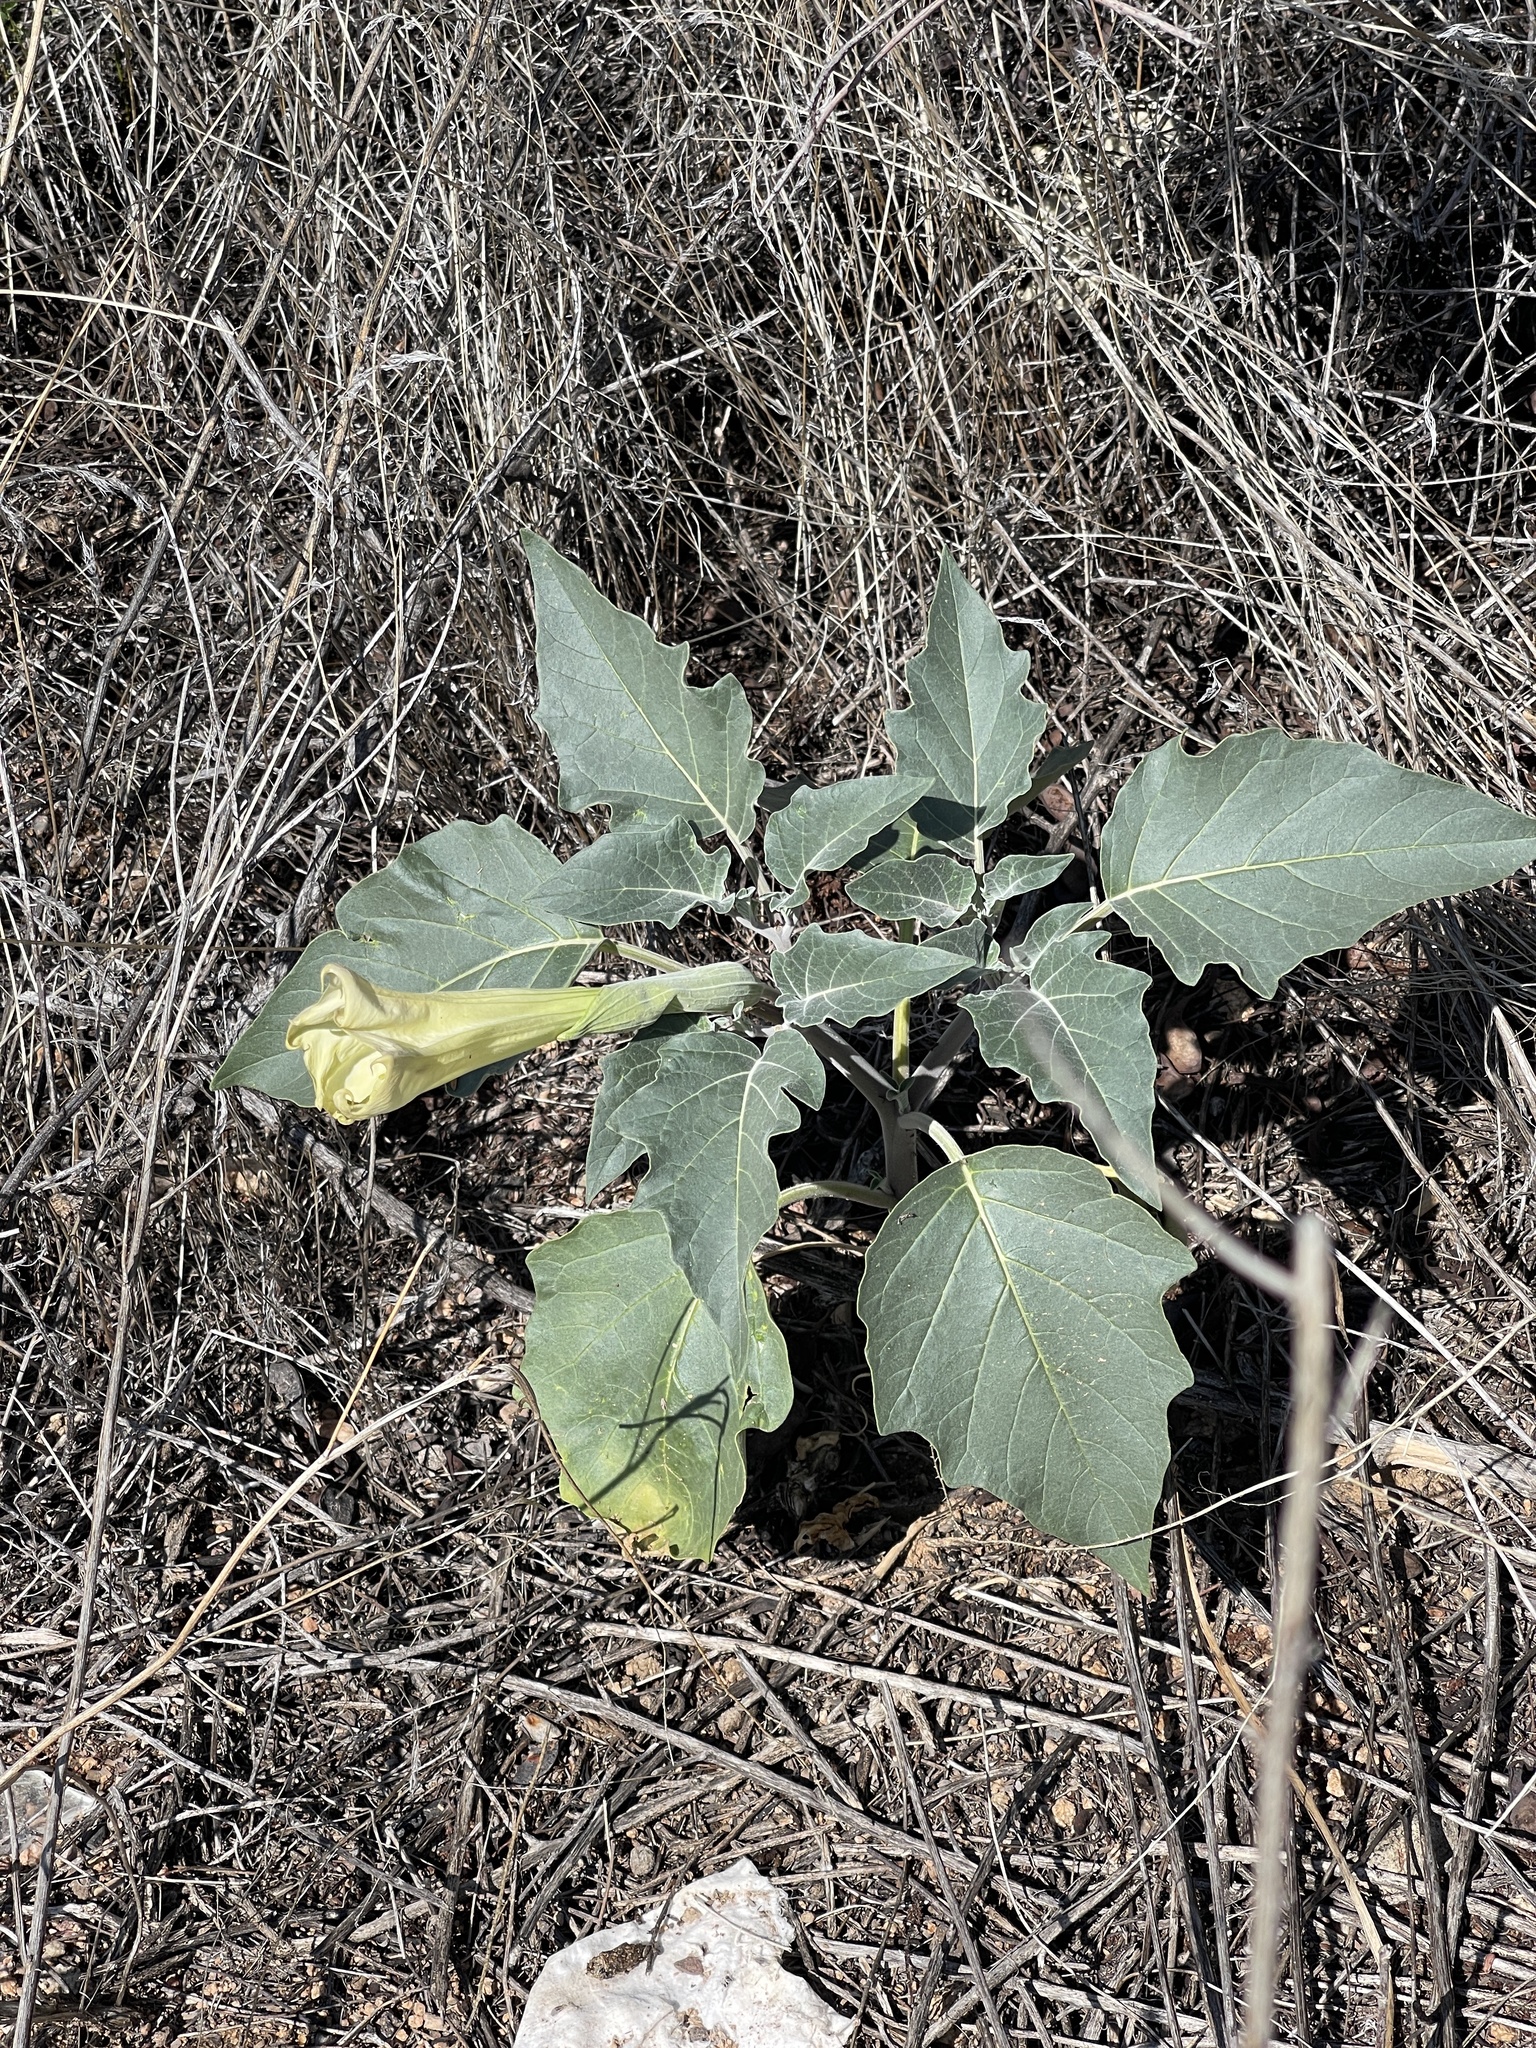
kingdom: Plantae
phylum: Tracheophyta
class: Magnoliopsida
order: Solanales
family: Solanaceae
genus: Datura
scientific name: Datura wrightii
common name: Sacred thorn-apple
